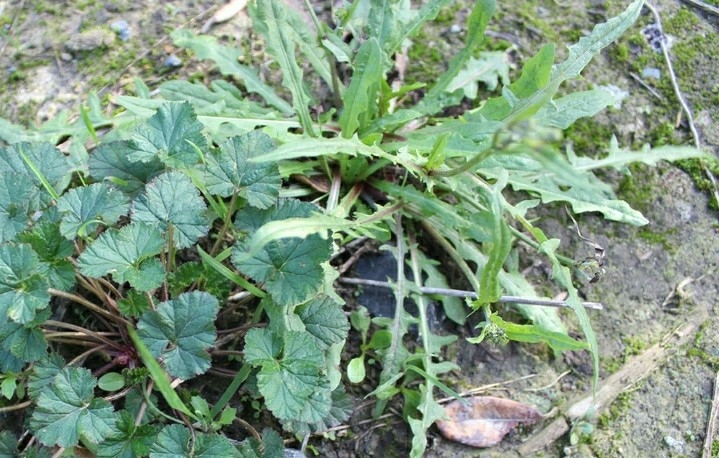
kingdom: Plantae
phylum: Tracheophyta
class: Magnoliopsida
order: Asterales
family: Asteraceae
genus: Crepis
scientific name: Crepis capillaris
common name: Smooth hawksbeard
